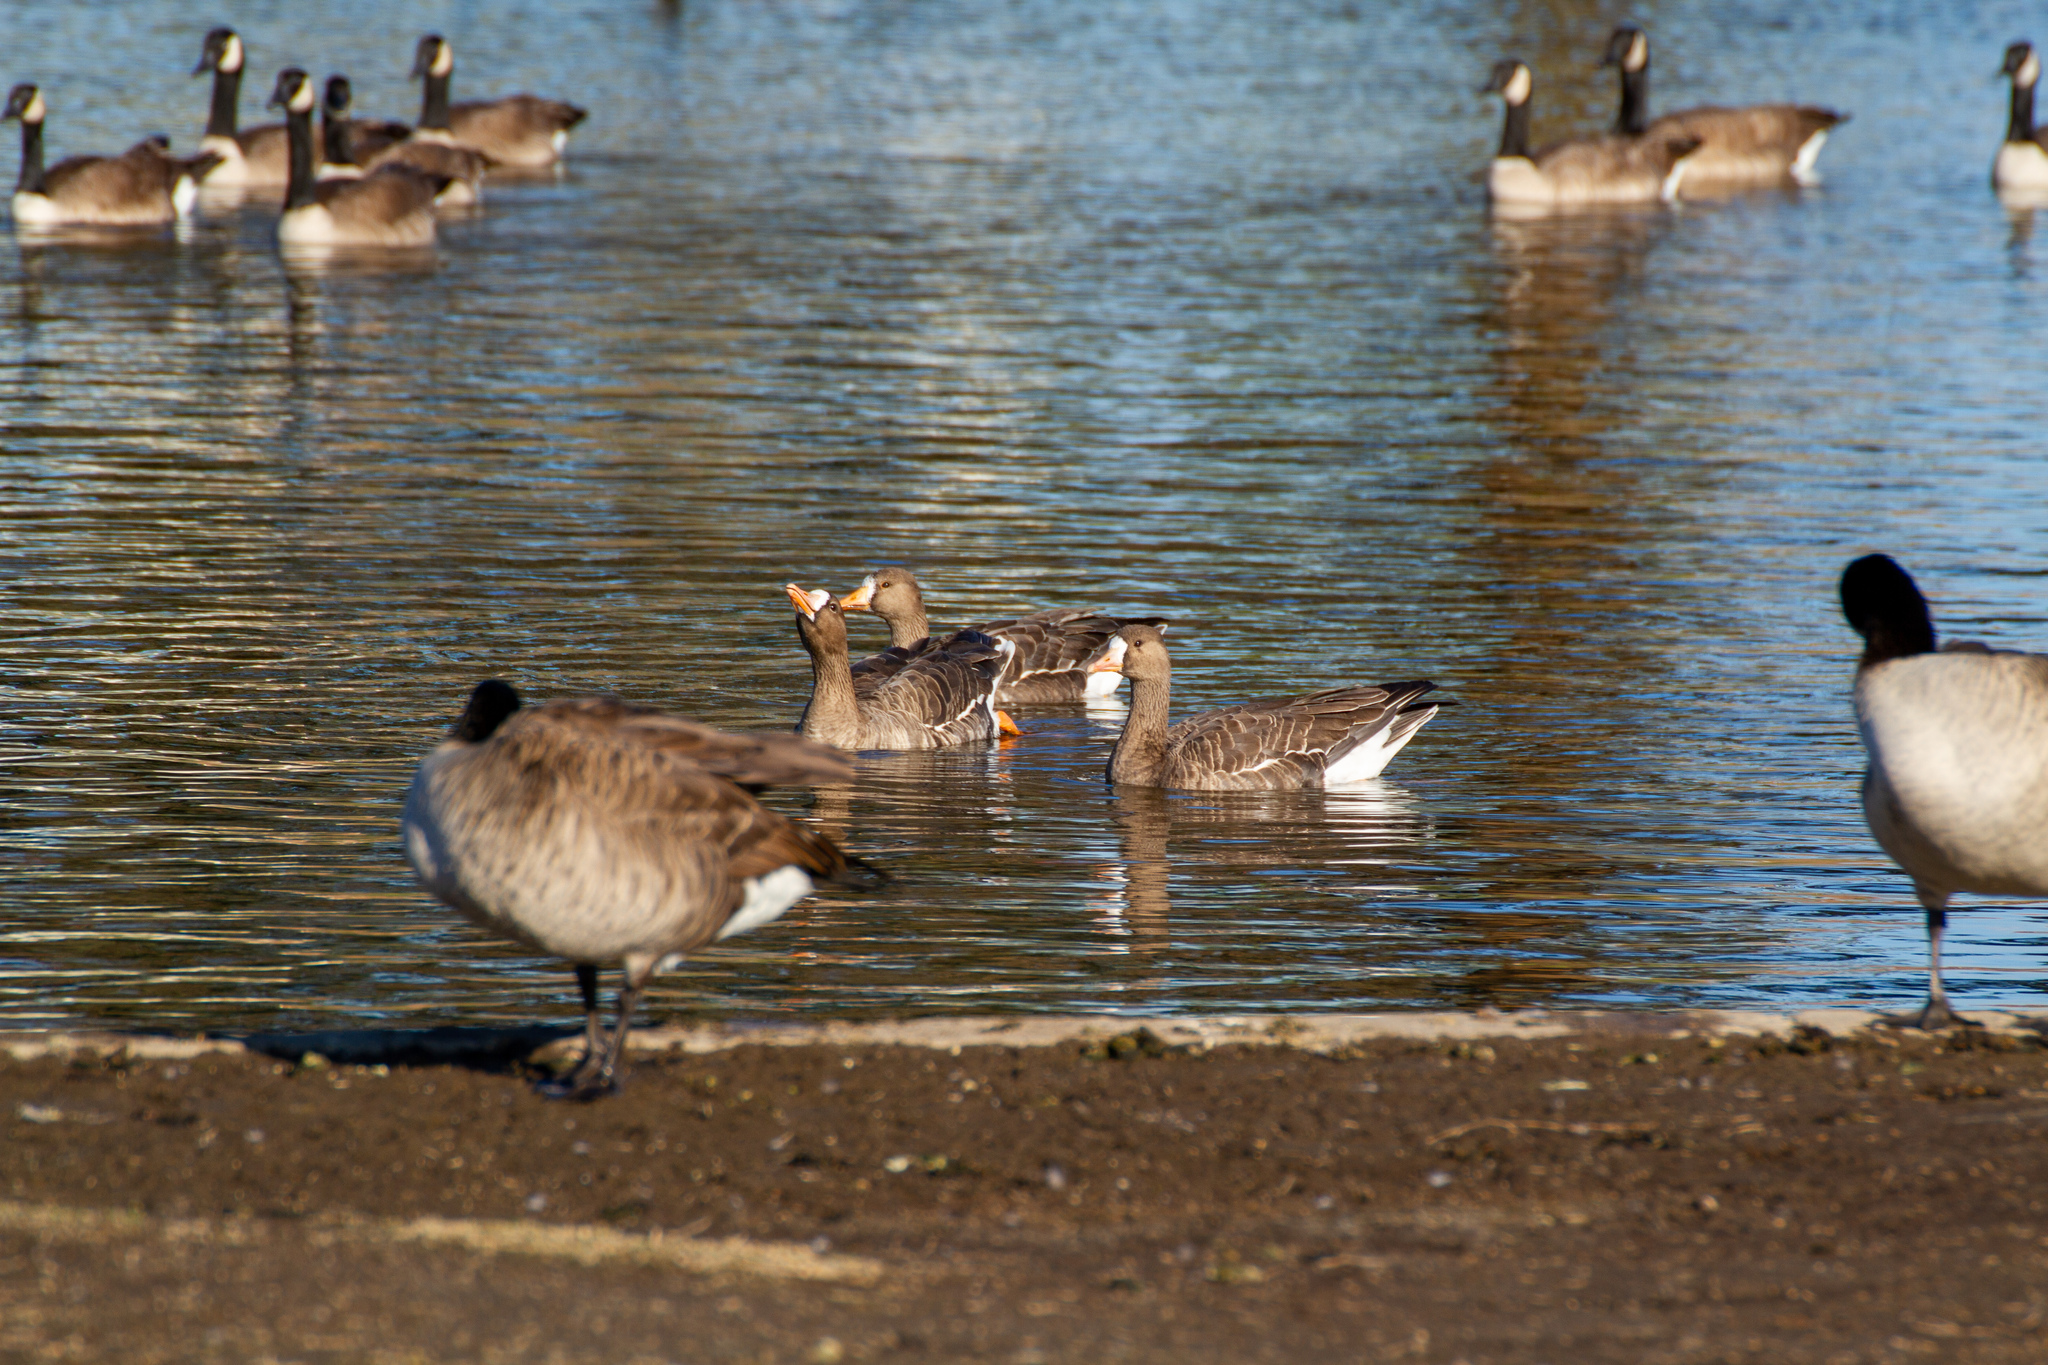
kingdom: Animalia
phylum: Chordata
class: Aves
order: Anseriformes
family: Anatidae
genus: Anser
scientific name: Anser albifrons
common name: Greater white-fronted goose
